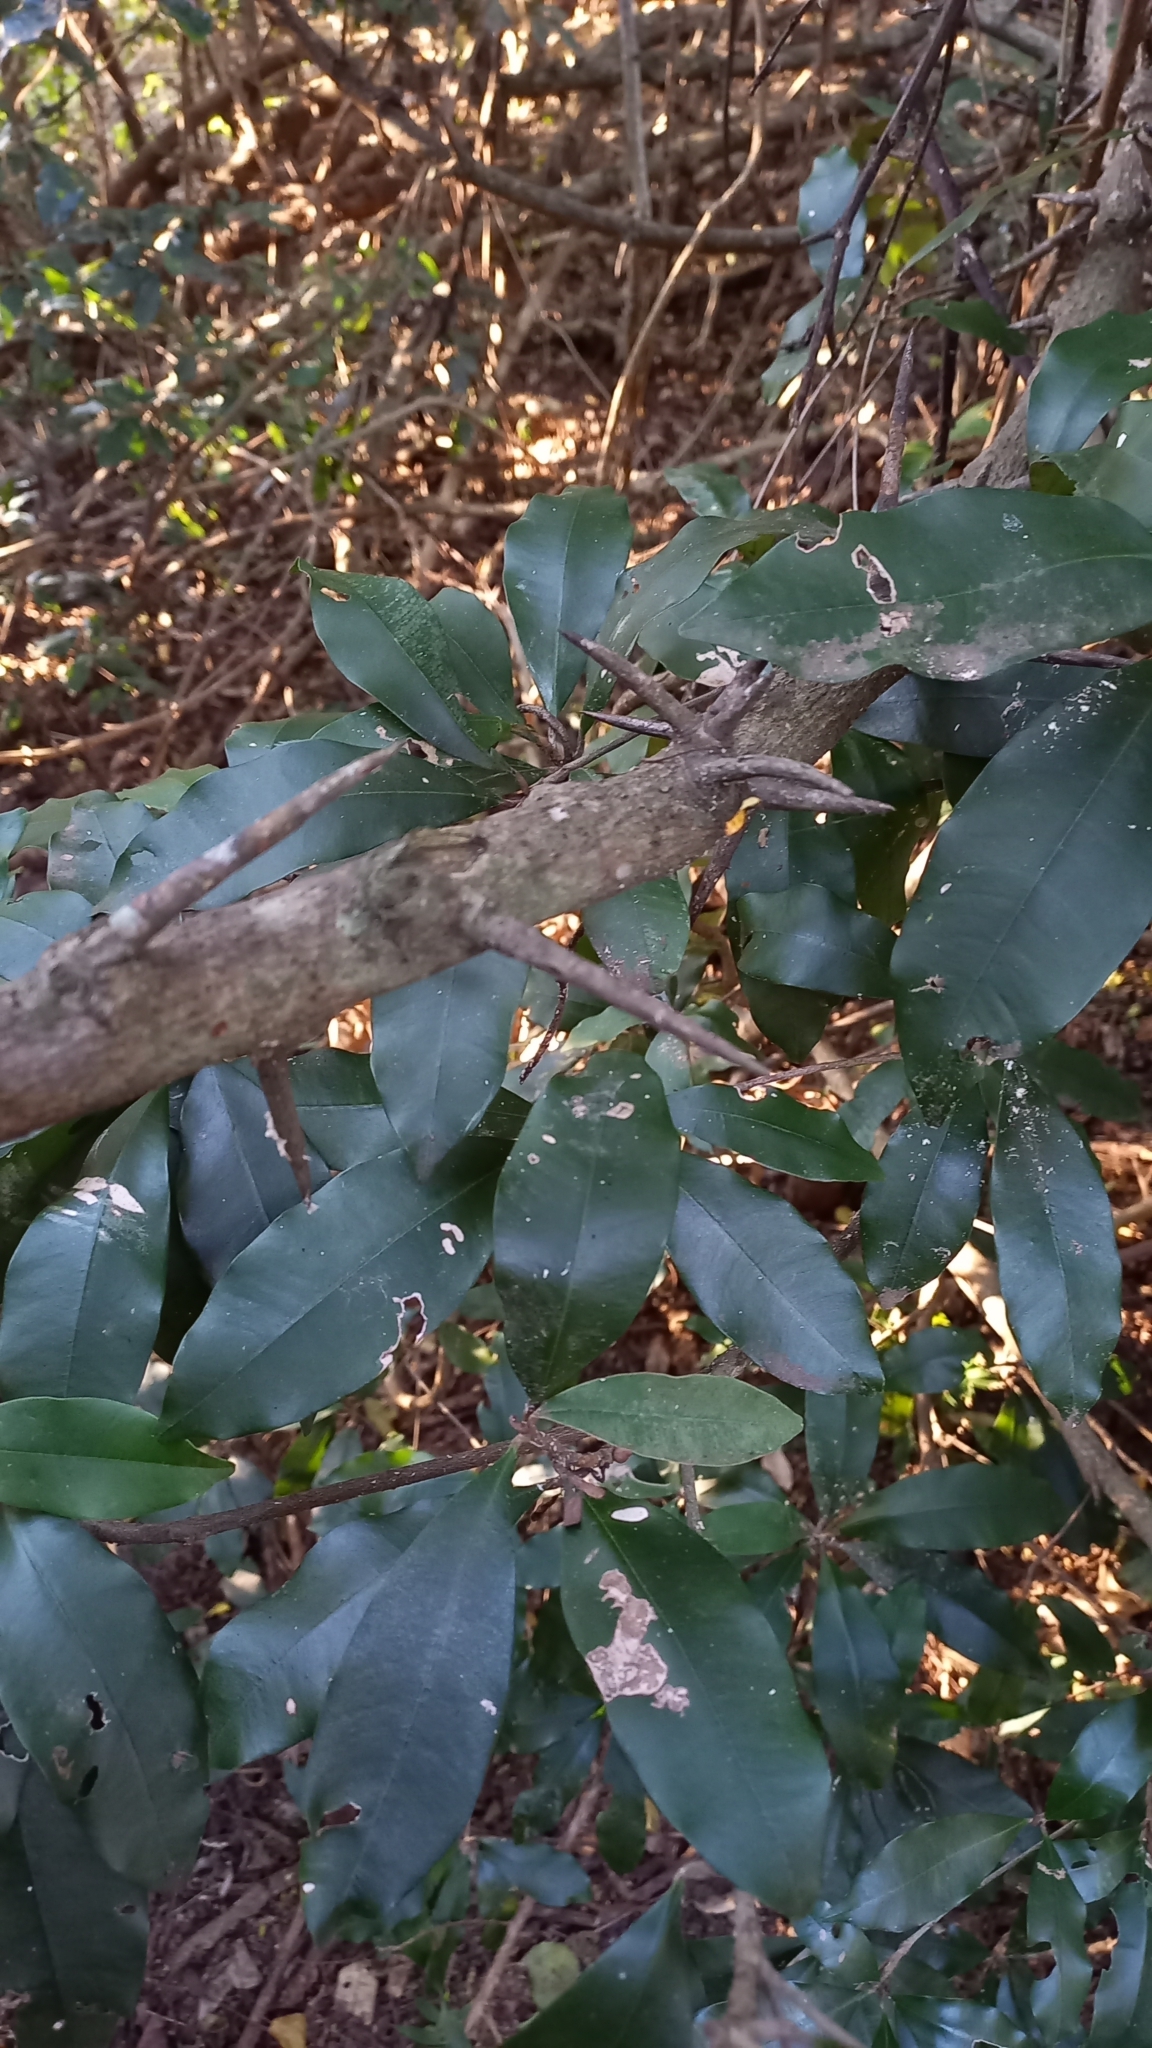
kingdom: Plantae
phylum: Tracheophyta
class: Magnoliopsida
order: Ericales
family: Sapotaceae
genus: Englerophytum
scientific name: Englerophytum natalense
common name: Silver-leaved milkplum
